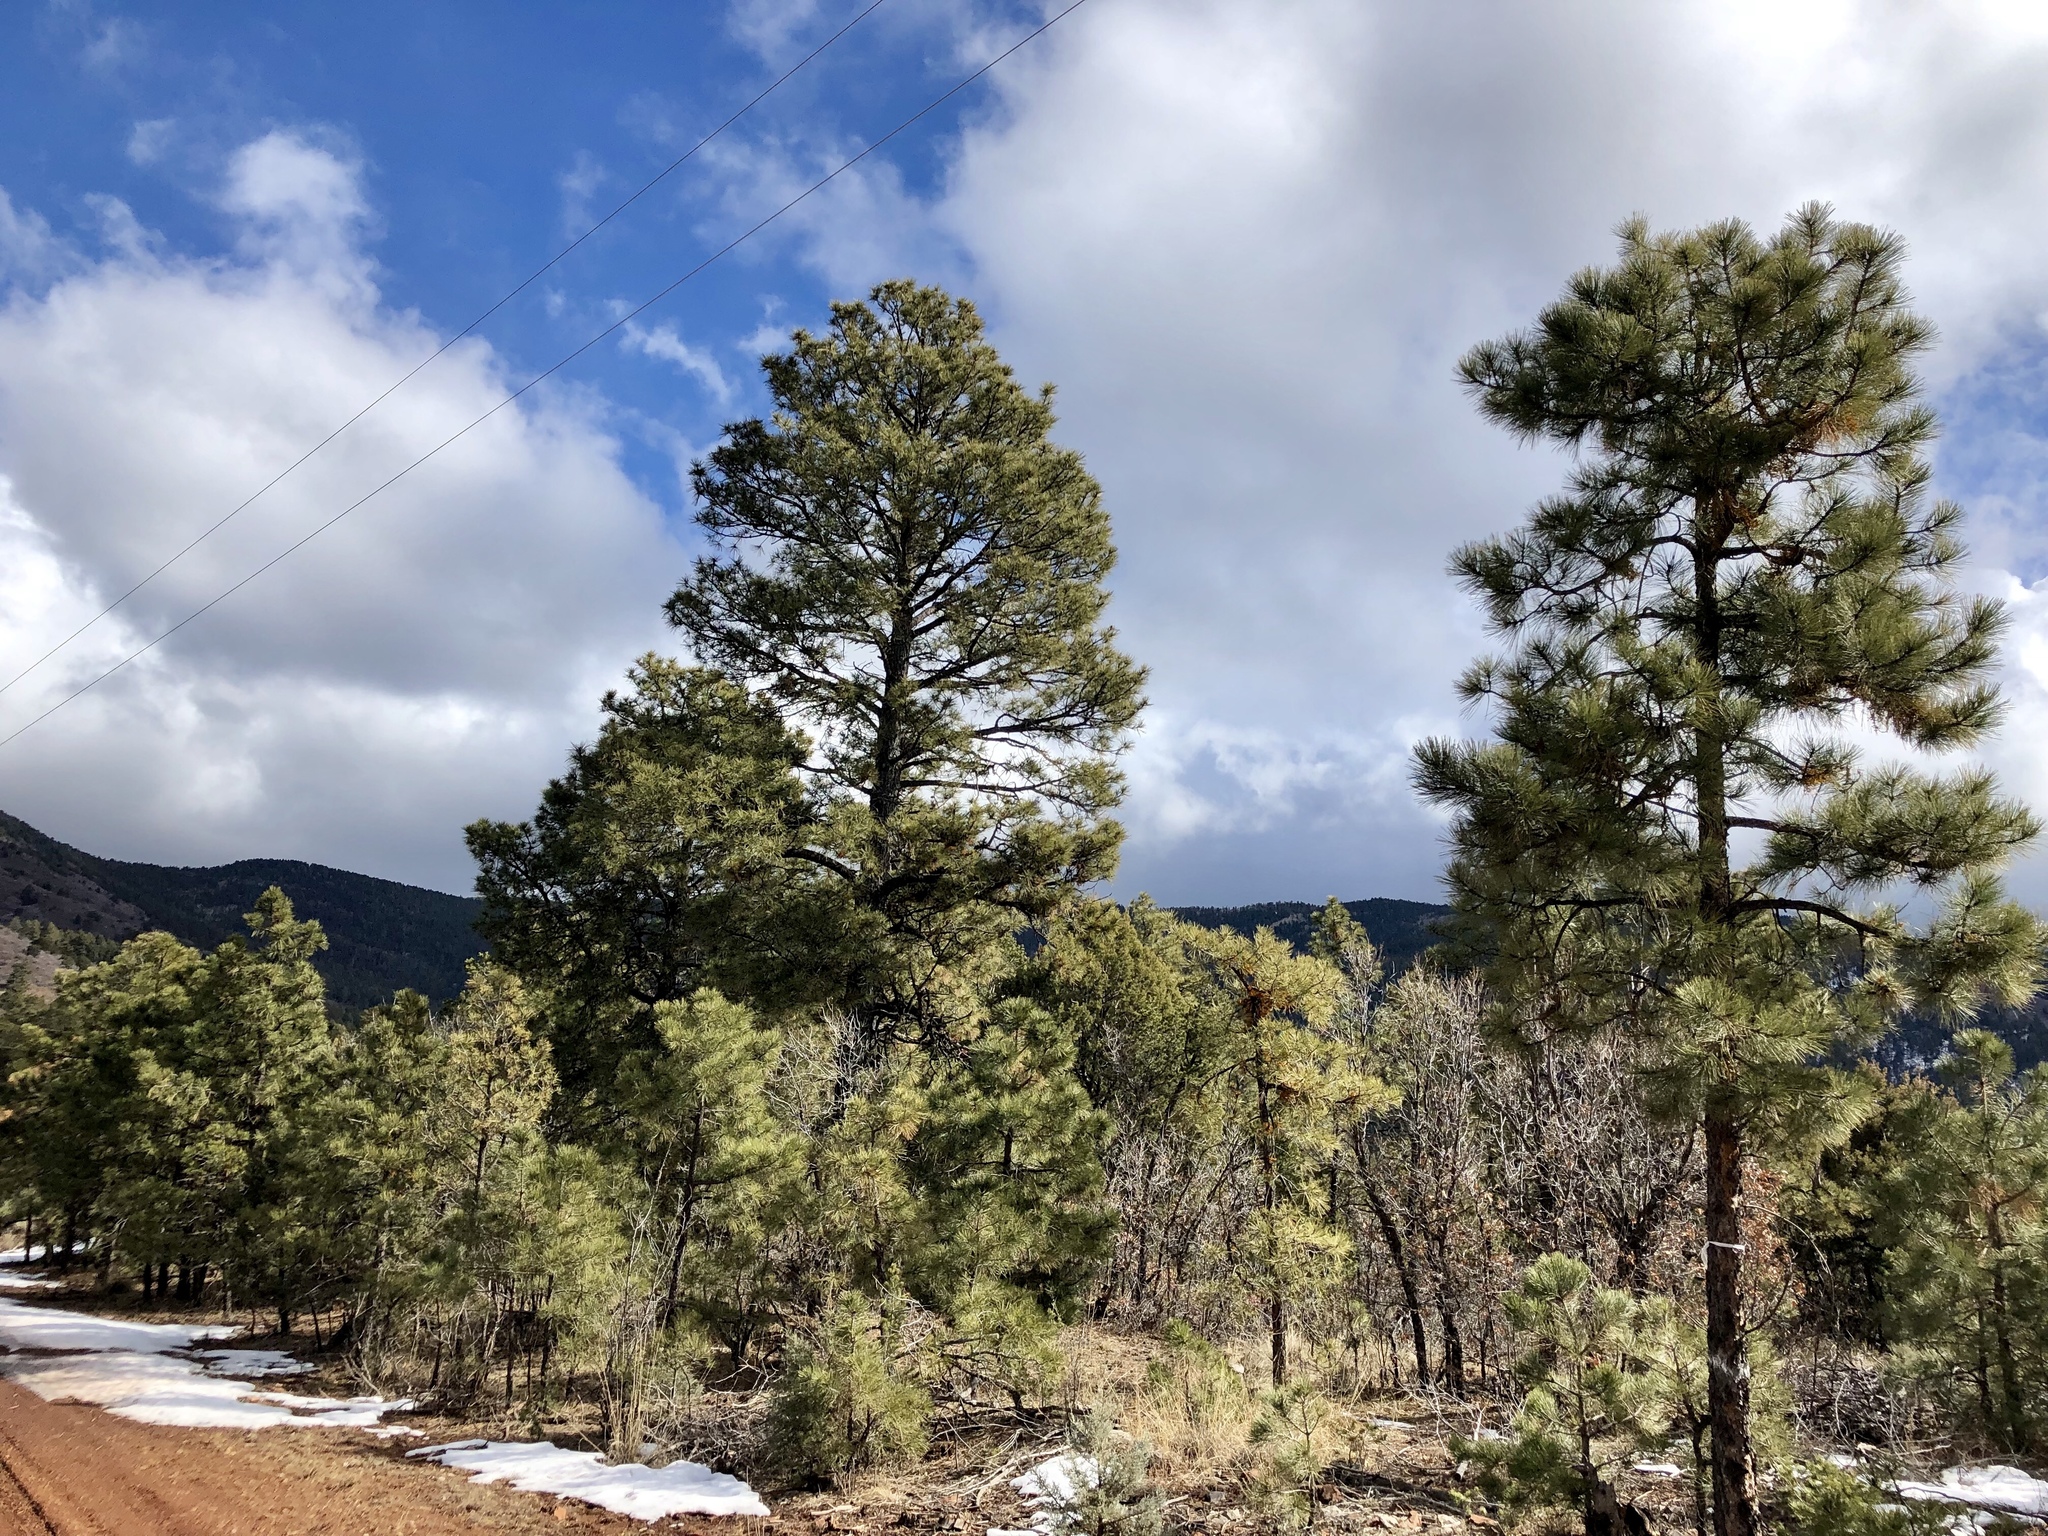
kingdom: Plantae
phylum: Tracheophyta
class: Pinopsida
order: Pinales
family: Pinaceae
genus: Pinus
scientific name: Pinus ponderosa
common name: Western yellow-pine
